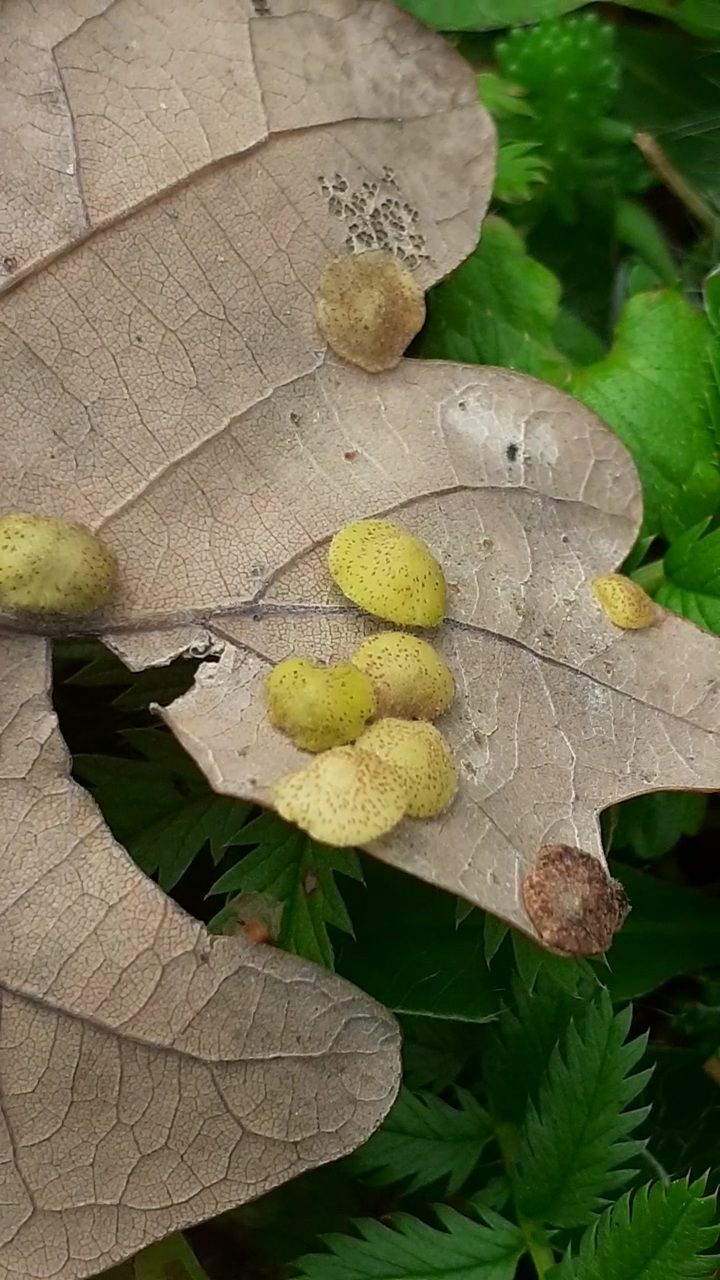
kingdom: Animalia
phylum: Arthropoda
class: Insecta
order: Hymenoptera
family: Cynipidae
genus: Neuroterus
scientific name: Neuroterus quercusbaccarum
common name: Common spangle gall
